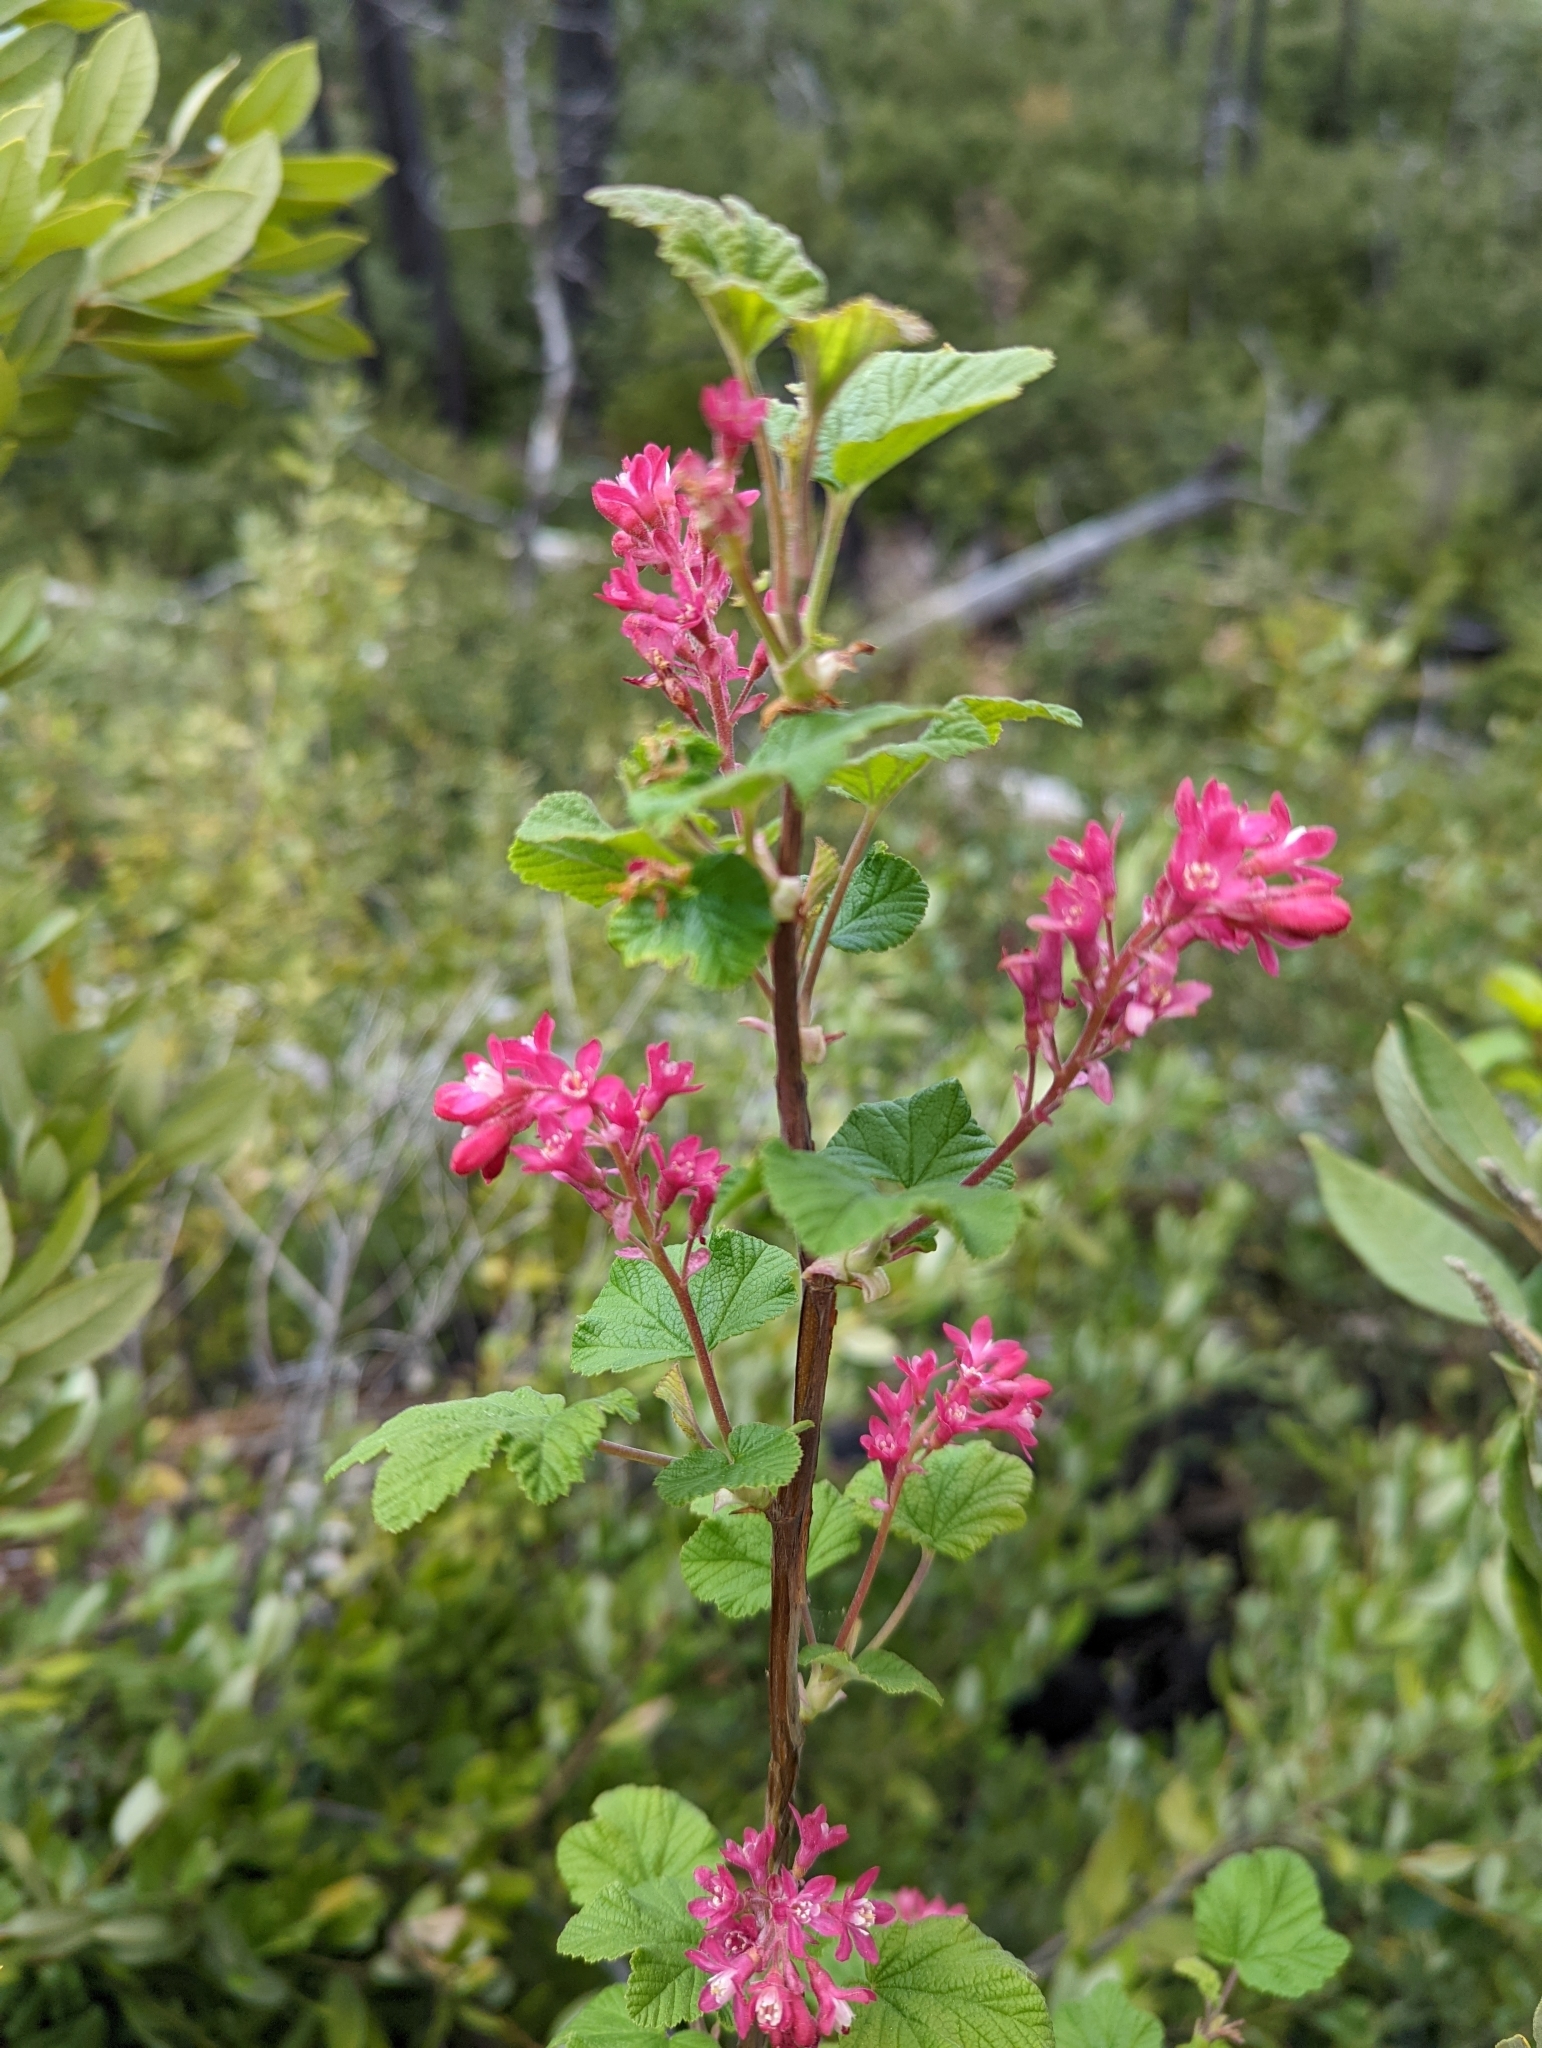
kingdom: Plantae
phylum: Tracheophyta
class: Magnoliopsida
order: Saxifragales
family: Grossulariaceae
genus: Ribes
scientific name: Ribes sanguineum
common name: Flowering currant
